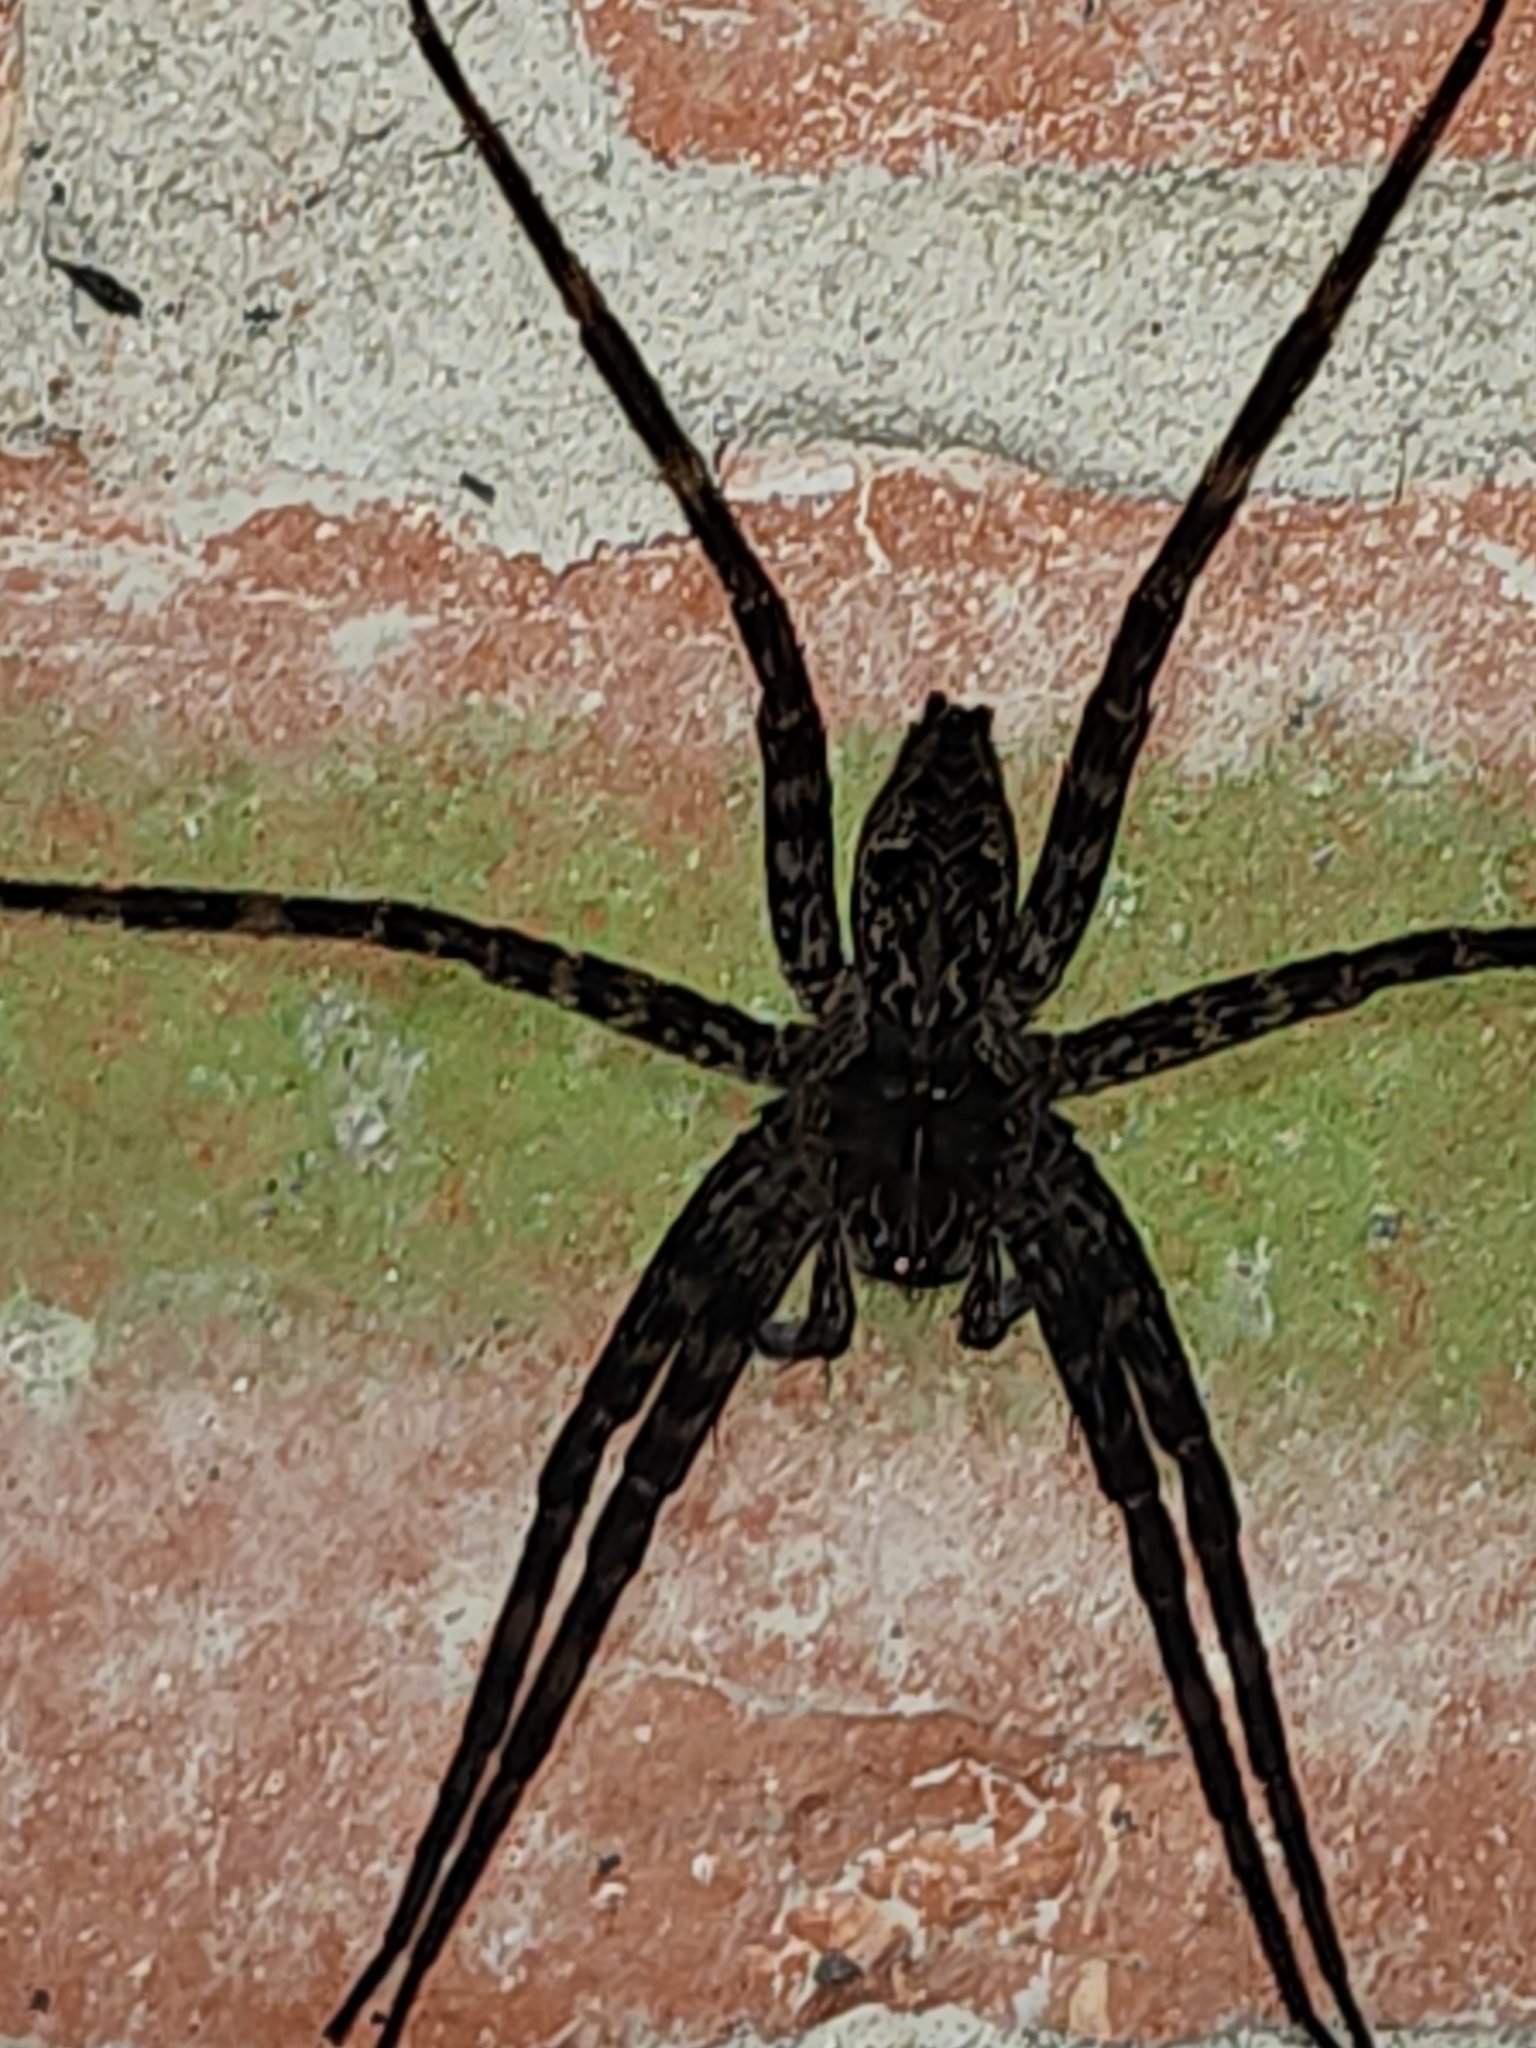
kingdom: Animalia
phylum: Arthropoda
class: Arachnida
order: Araneae
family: Pisauridae
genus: Dolomedes
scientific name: Dolomedes tenebrosus
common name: Dark fishing spider
